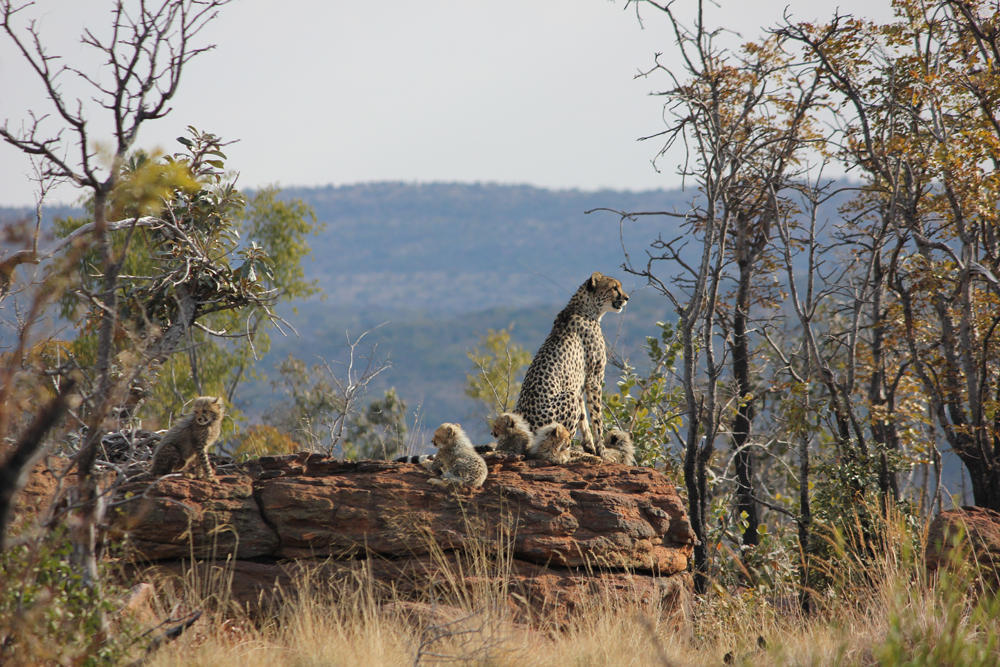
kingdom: Animalia
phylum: Chordata
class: Mammalia
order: Carnivora
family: Felidae
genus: Acinonyx
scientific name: Acinonyx jubatus
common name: Cheetah
